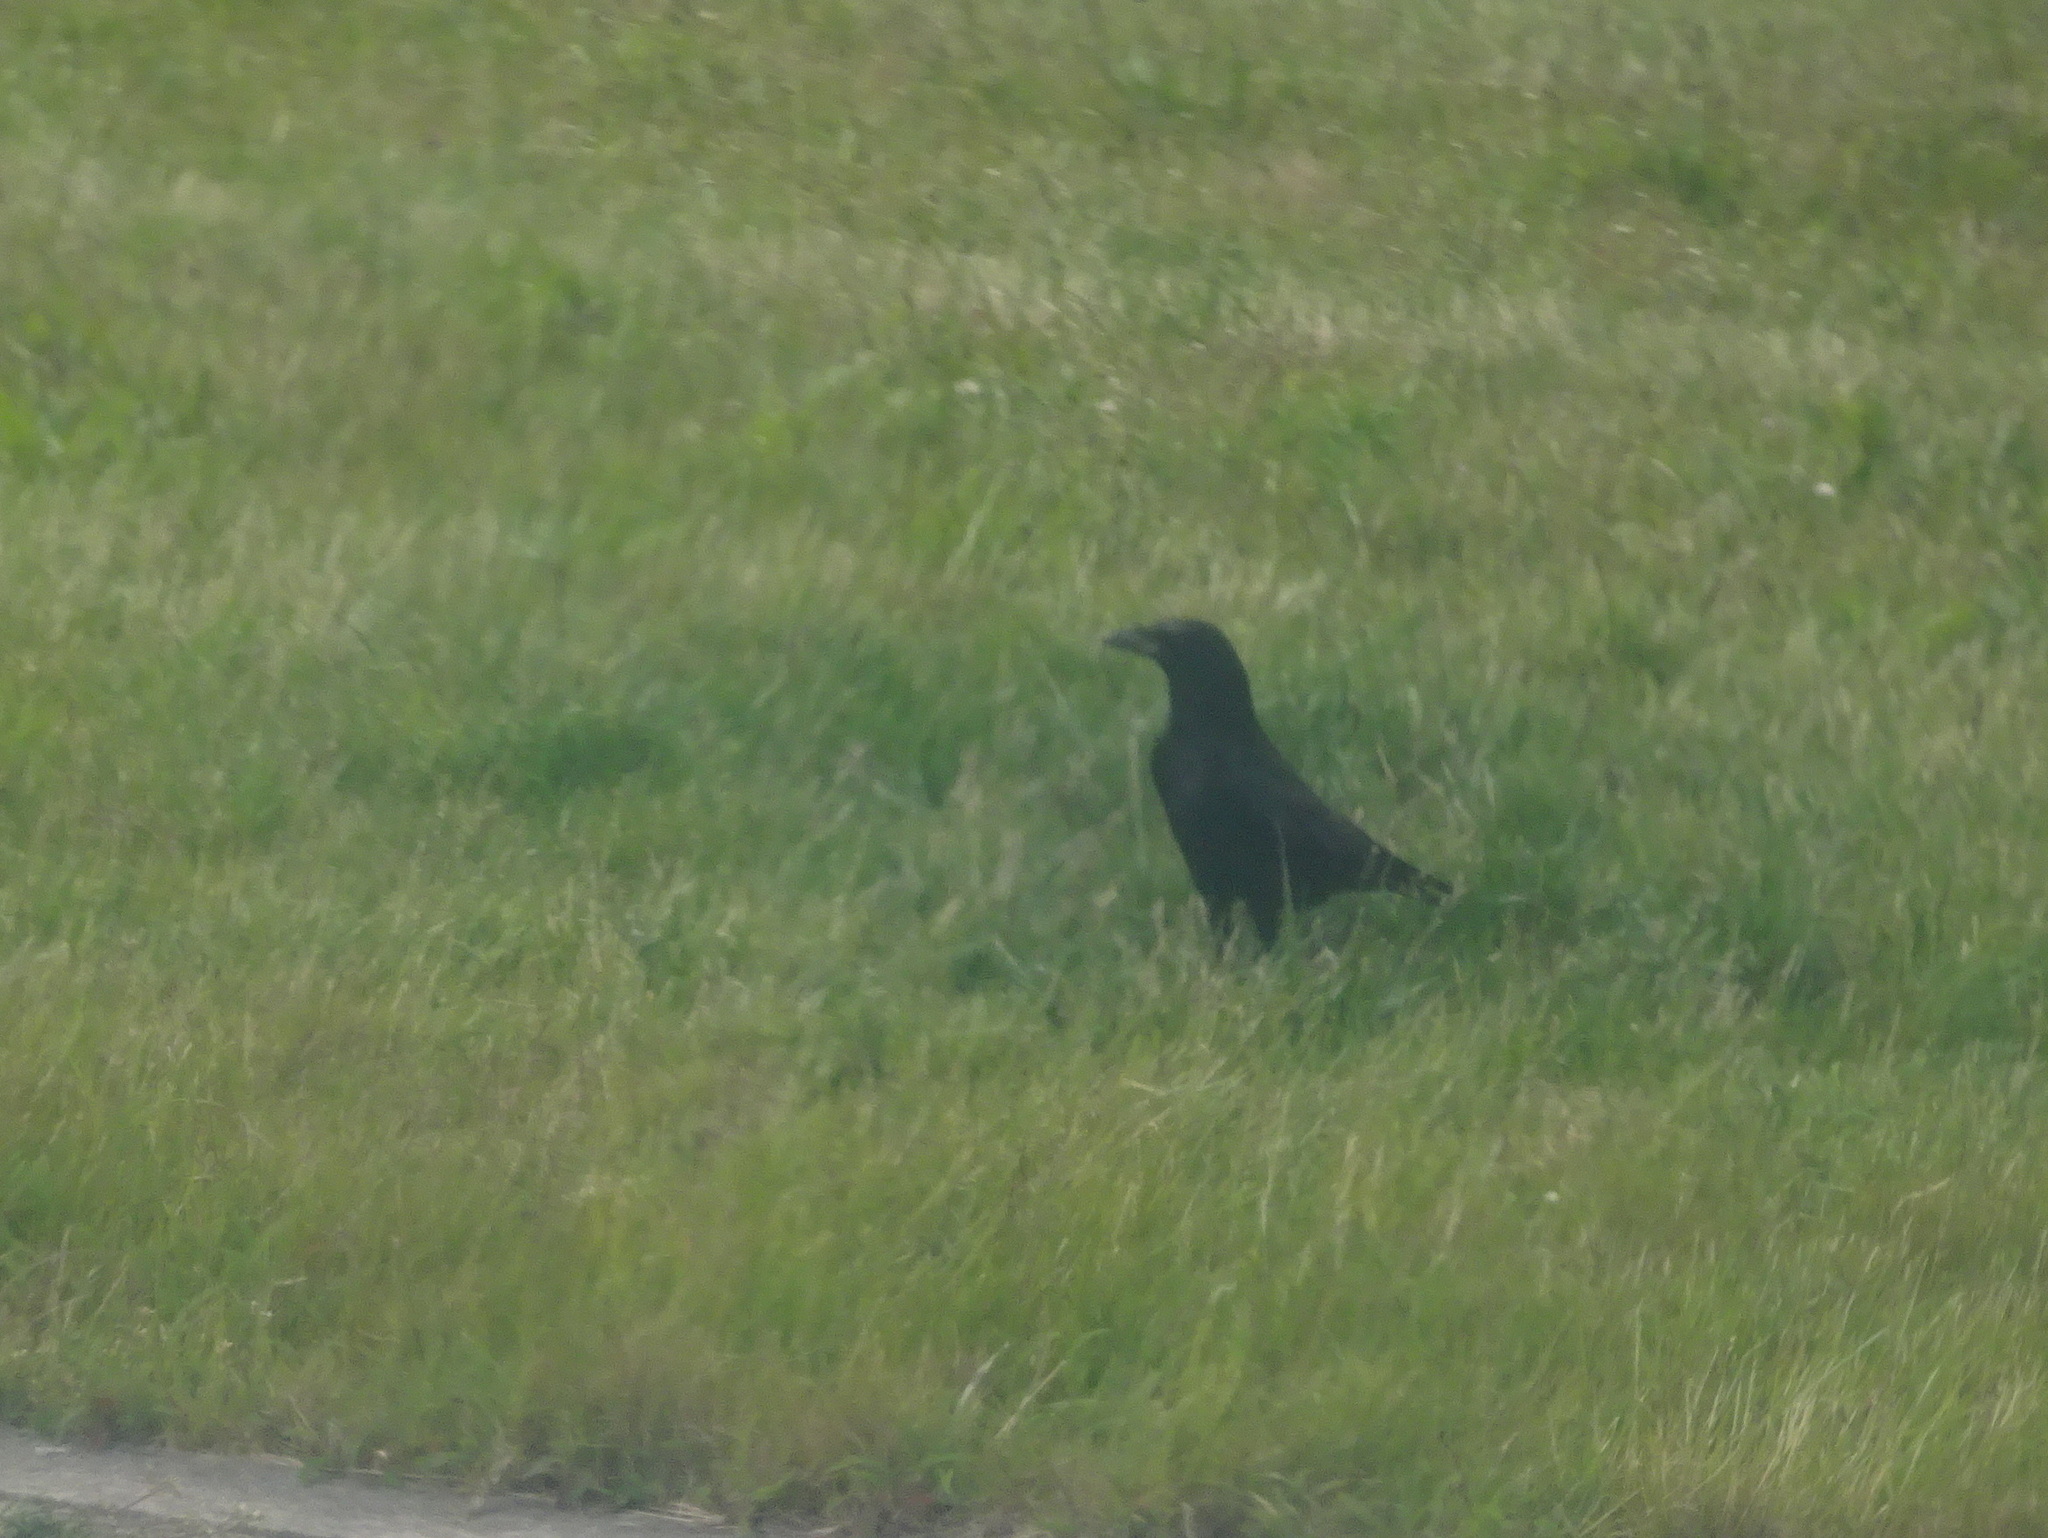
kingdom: Animalia
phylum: Chordata
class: Aves
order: Passeriformes
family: Corvidae
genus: Corvus
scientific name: Corvus corone
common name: Carrion crow
